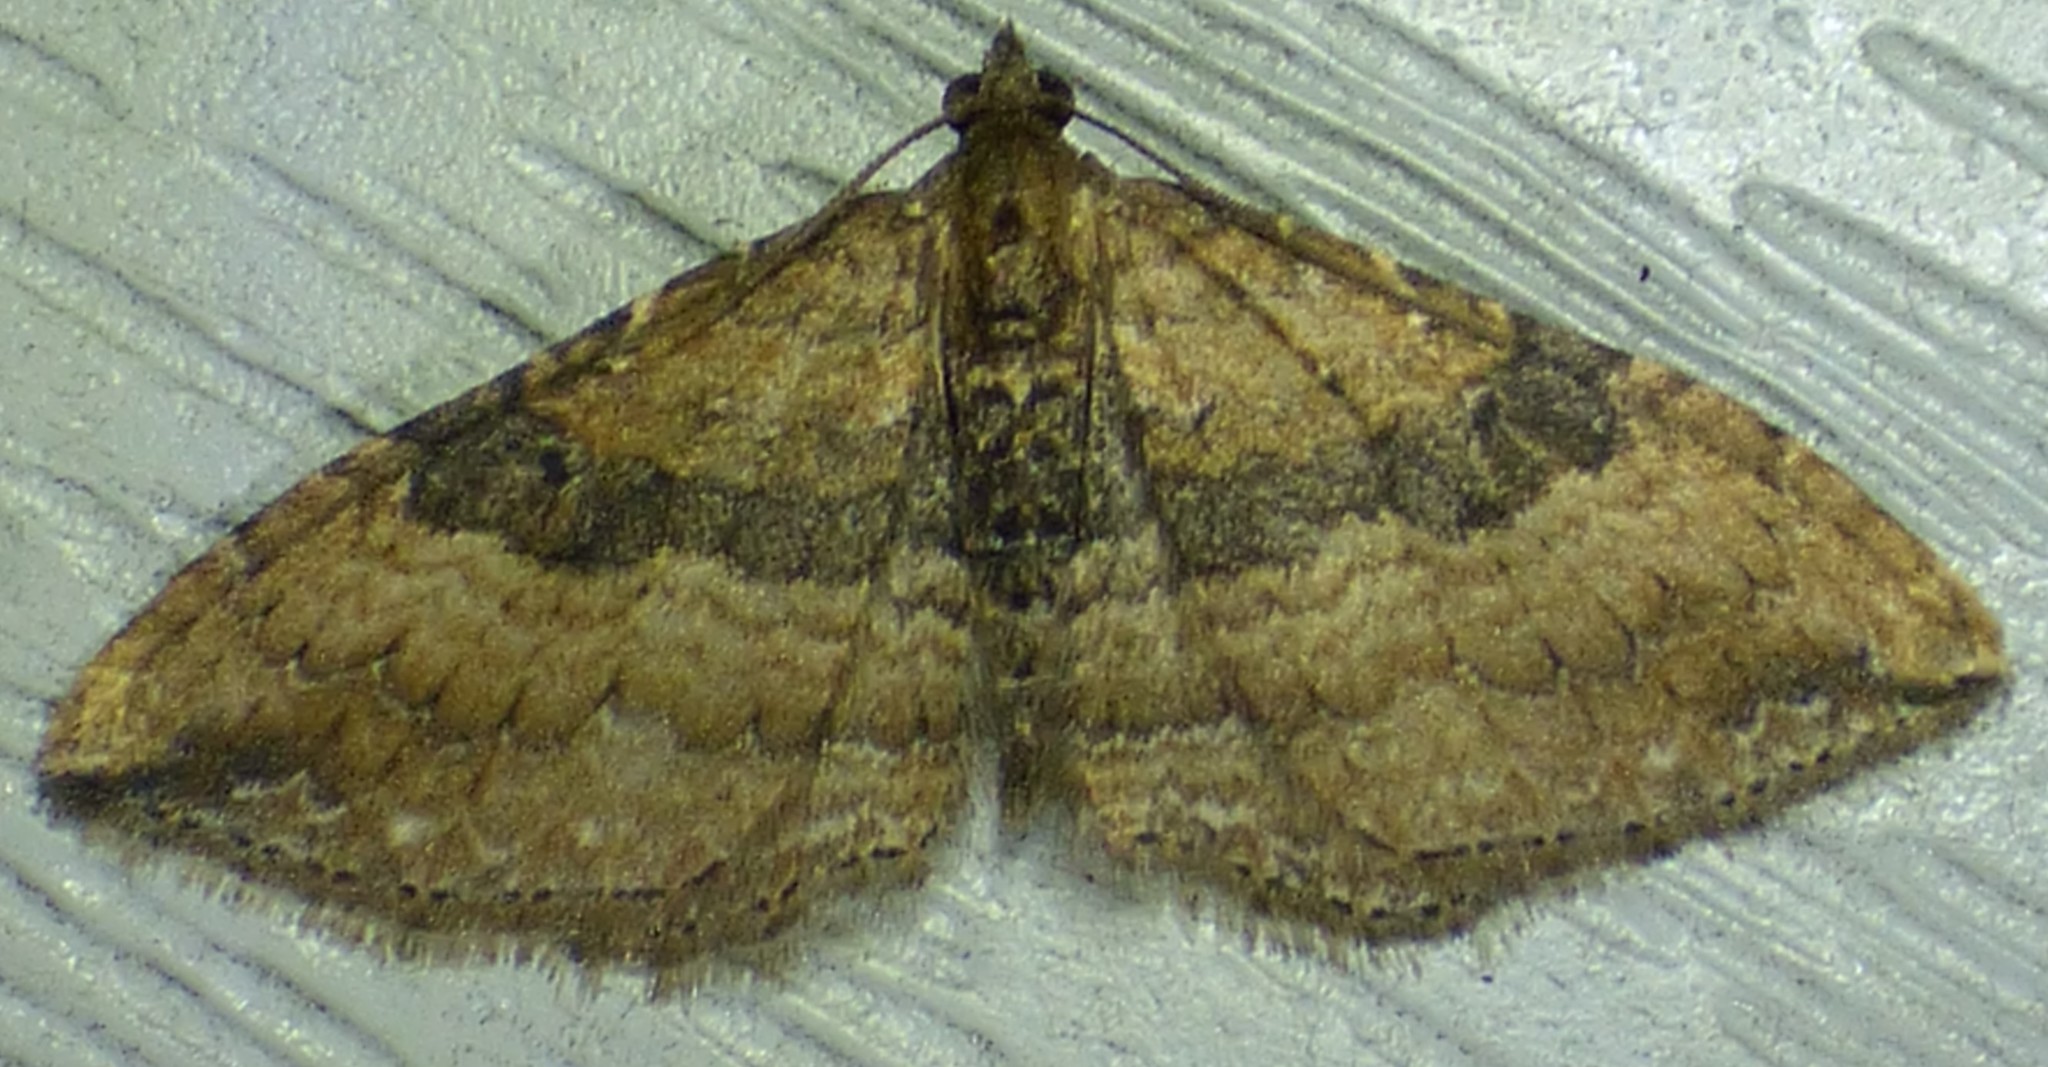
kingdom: Animalia
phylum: Arthropoda
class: Insecta
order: Lepidoptera
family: Geometridae
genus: Orthonama
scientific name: Orthonama obstipata
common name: The gem
